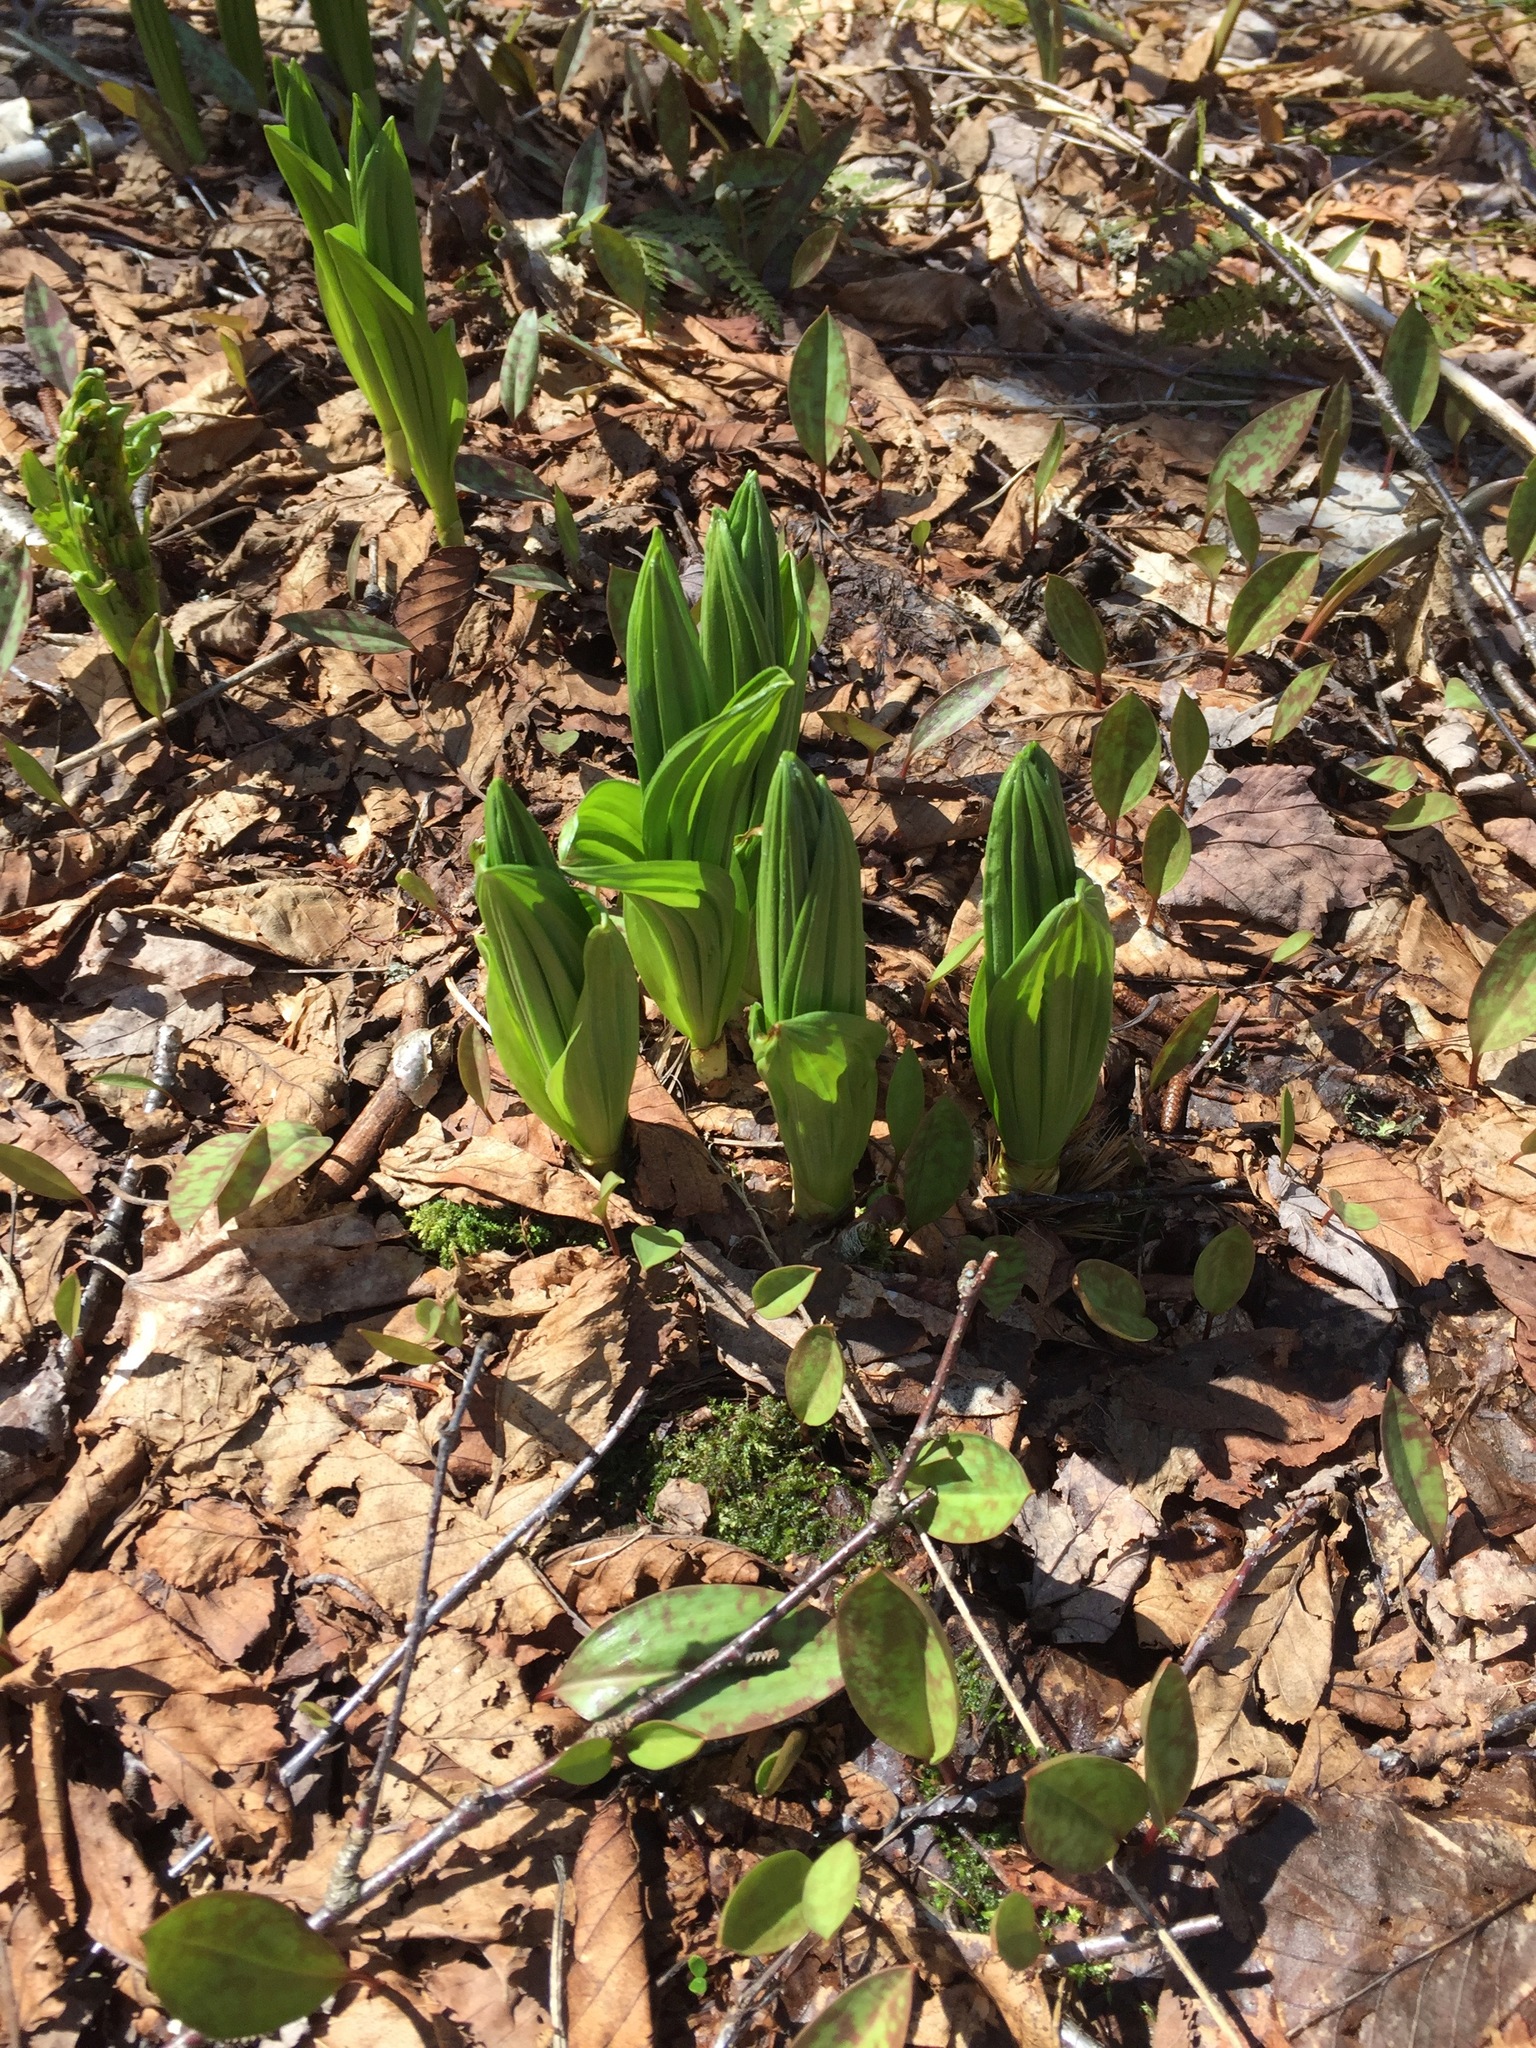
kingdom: Plantae
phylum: Tracheophyta
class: Liliopsida
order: Liliales
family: Melanthiaceae
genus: Veratrum
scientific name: Veratrum viride
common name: American false hellebore
